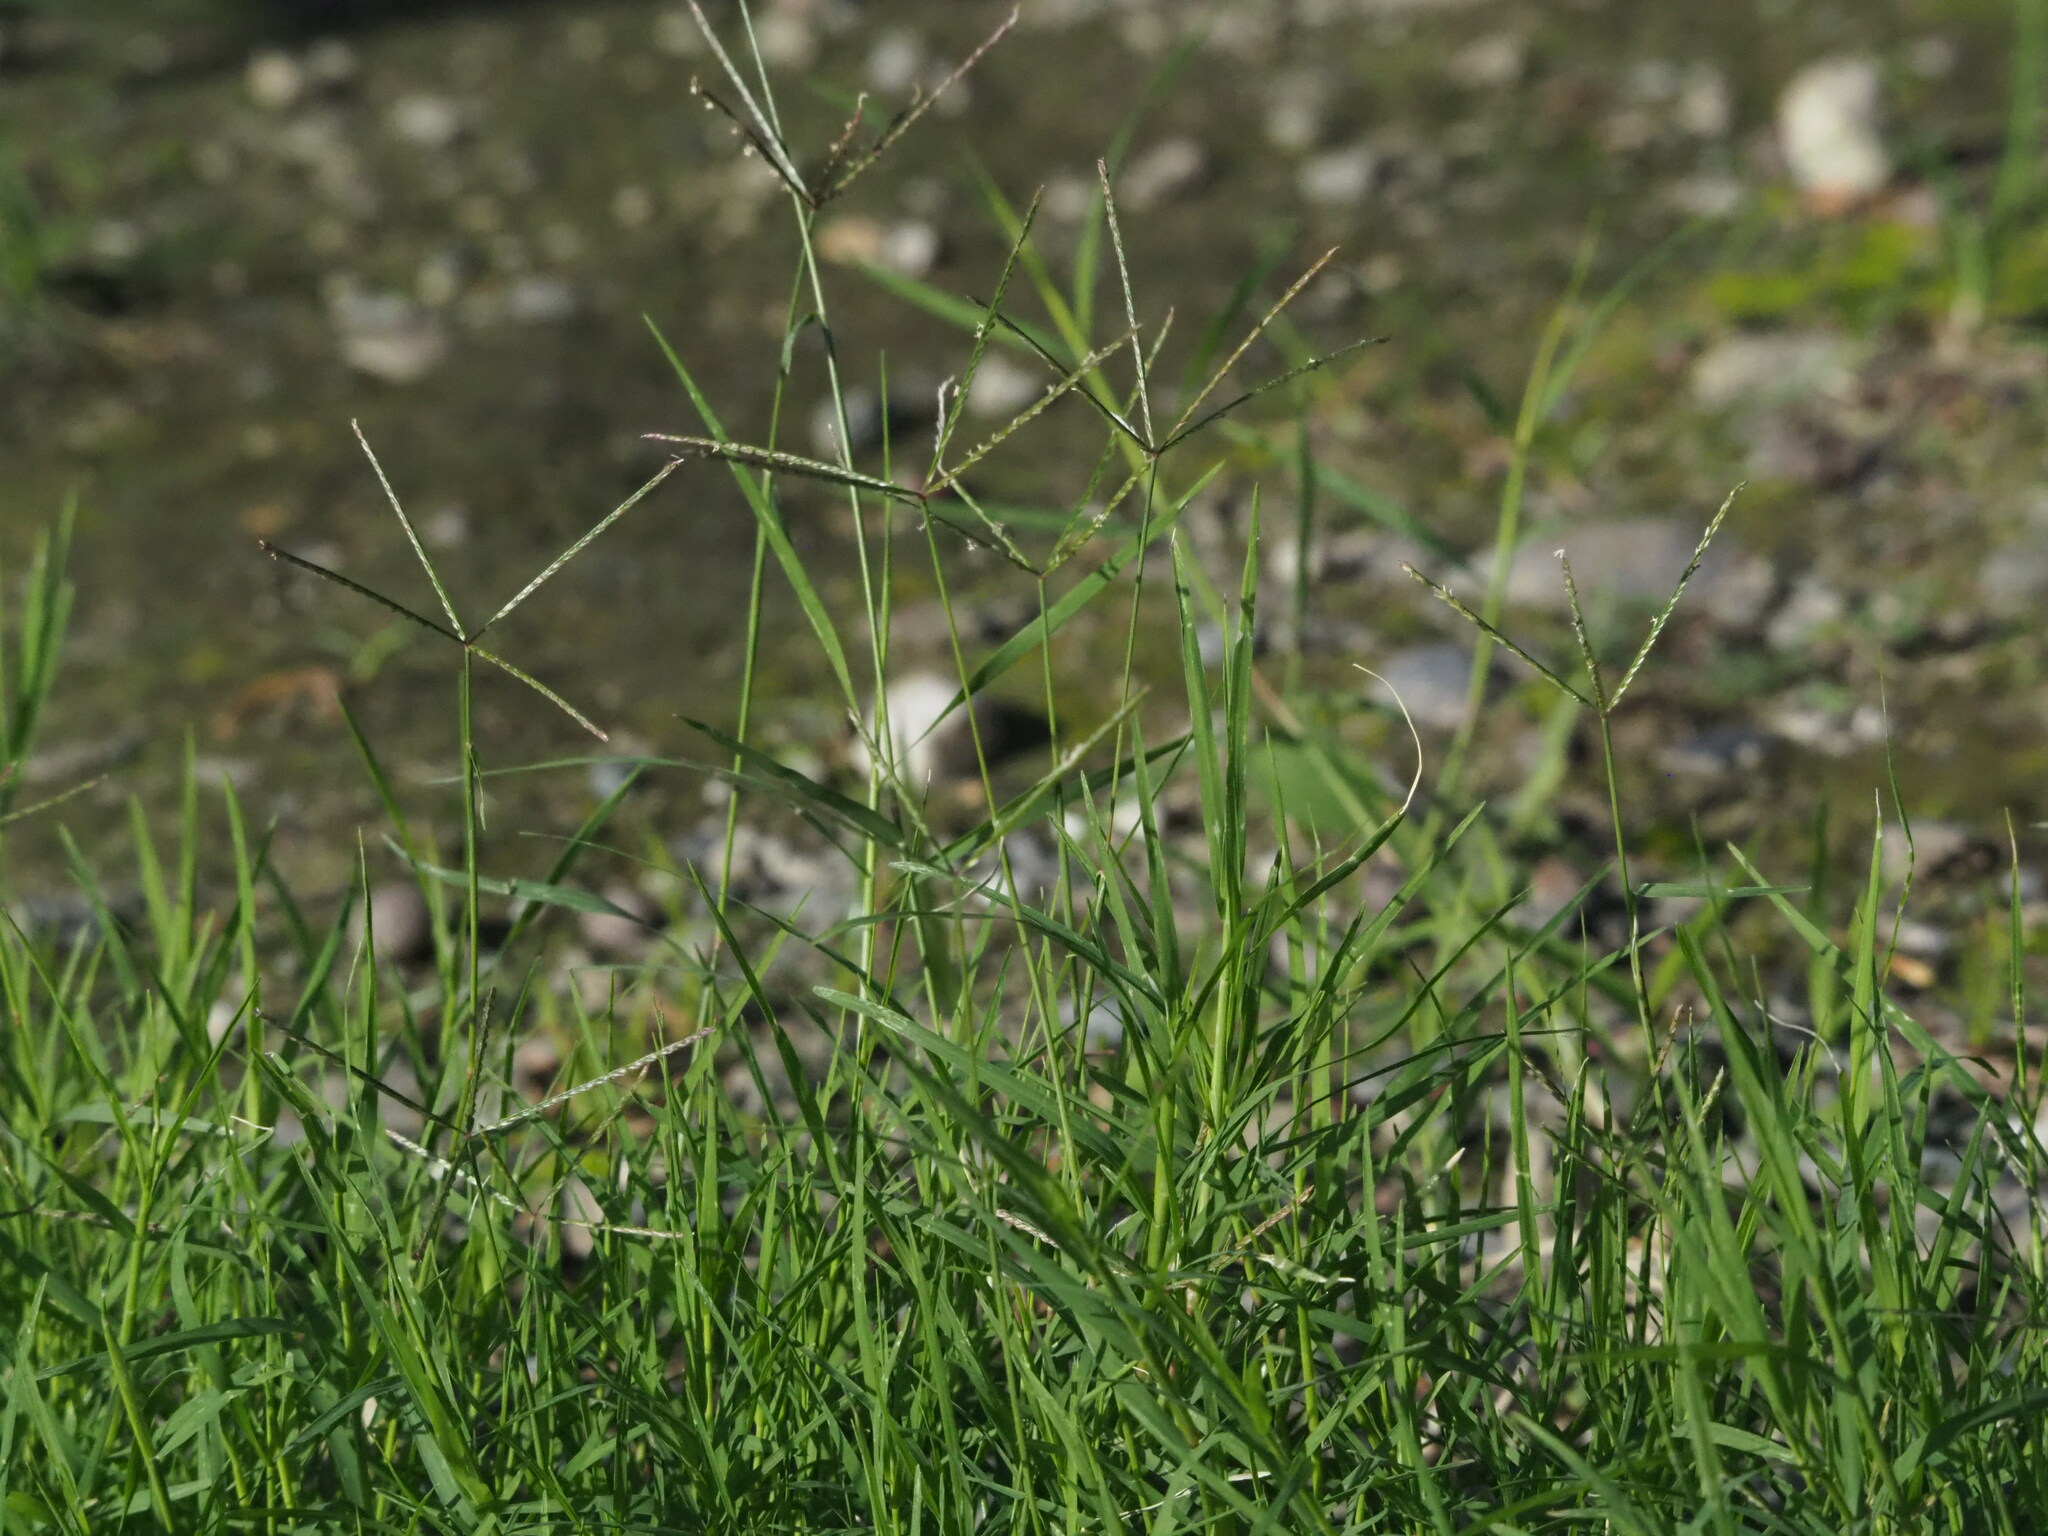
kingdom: Plantae
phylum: Tracheophyta
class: Liliopsida
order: Poales
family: Poaceae
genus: Cynodon
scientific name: Cynodon dactylon
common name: Bermuda grass
